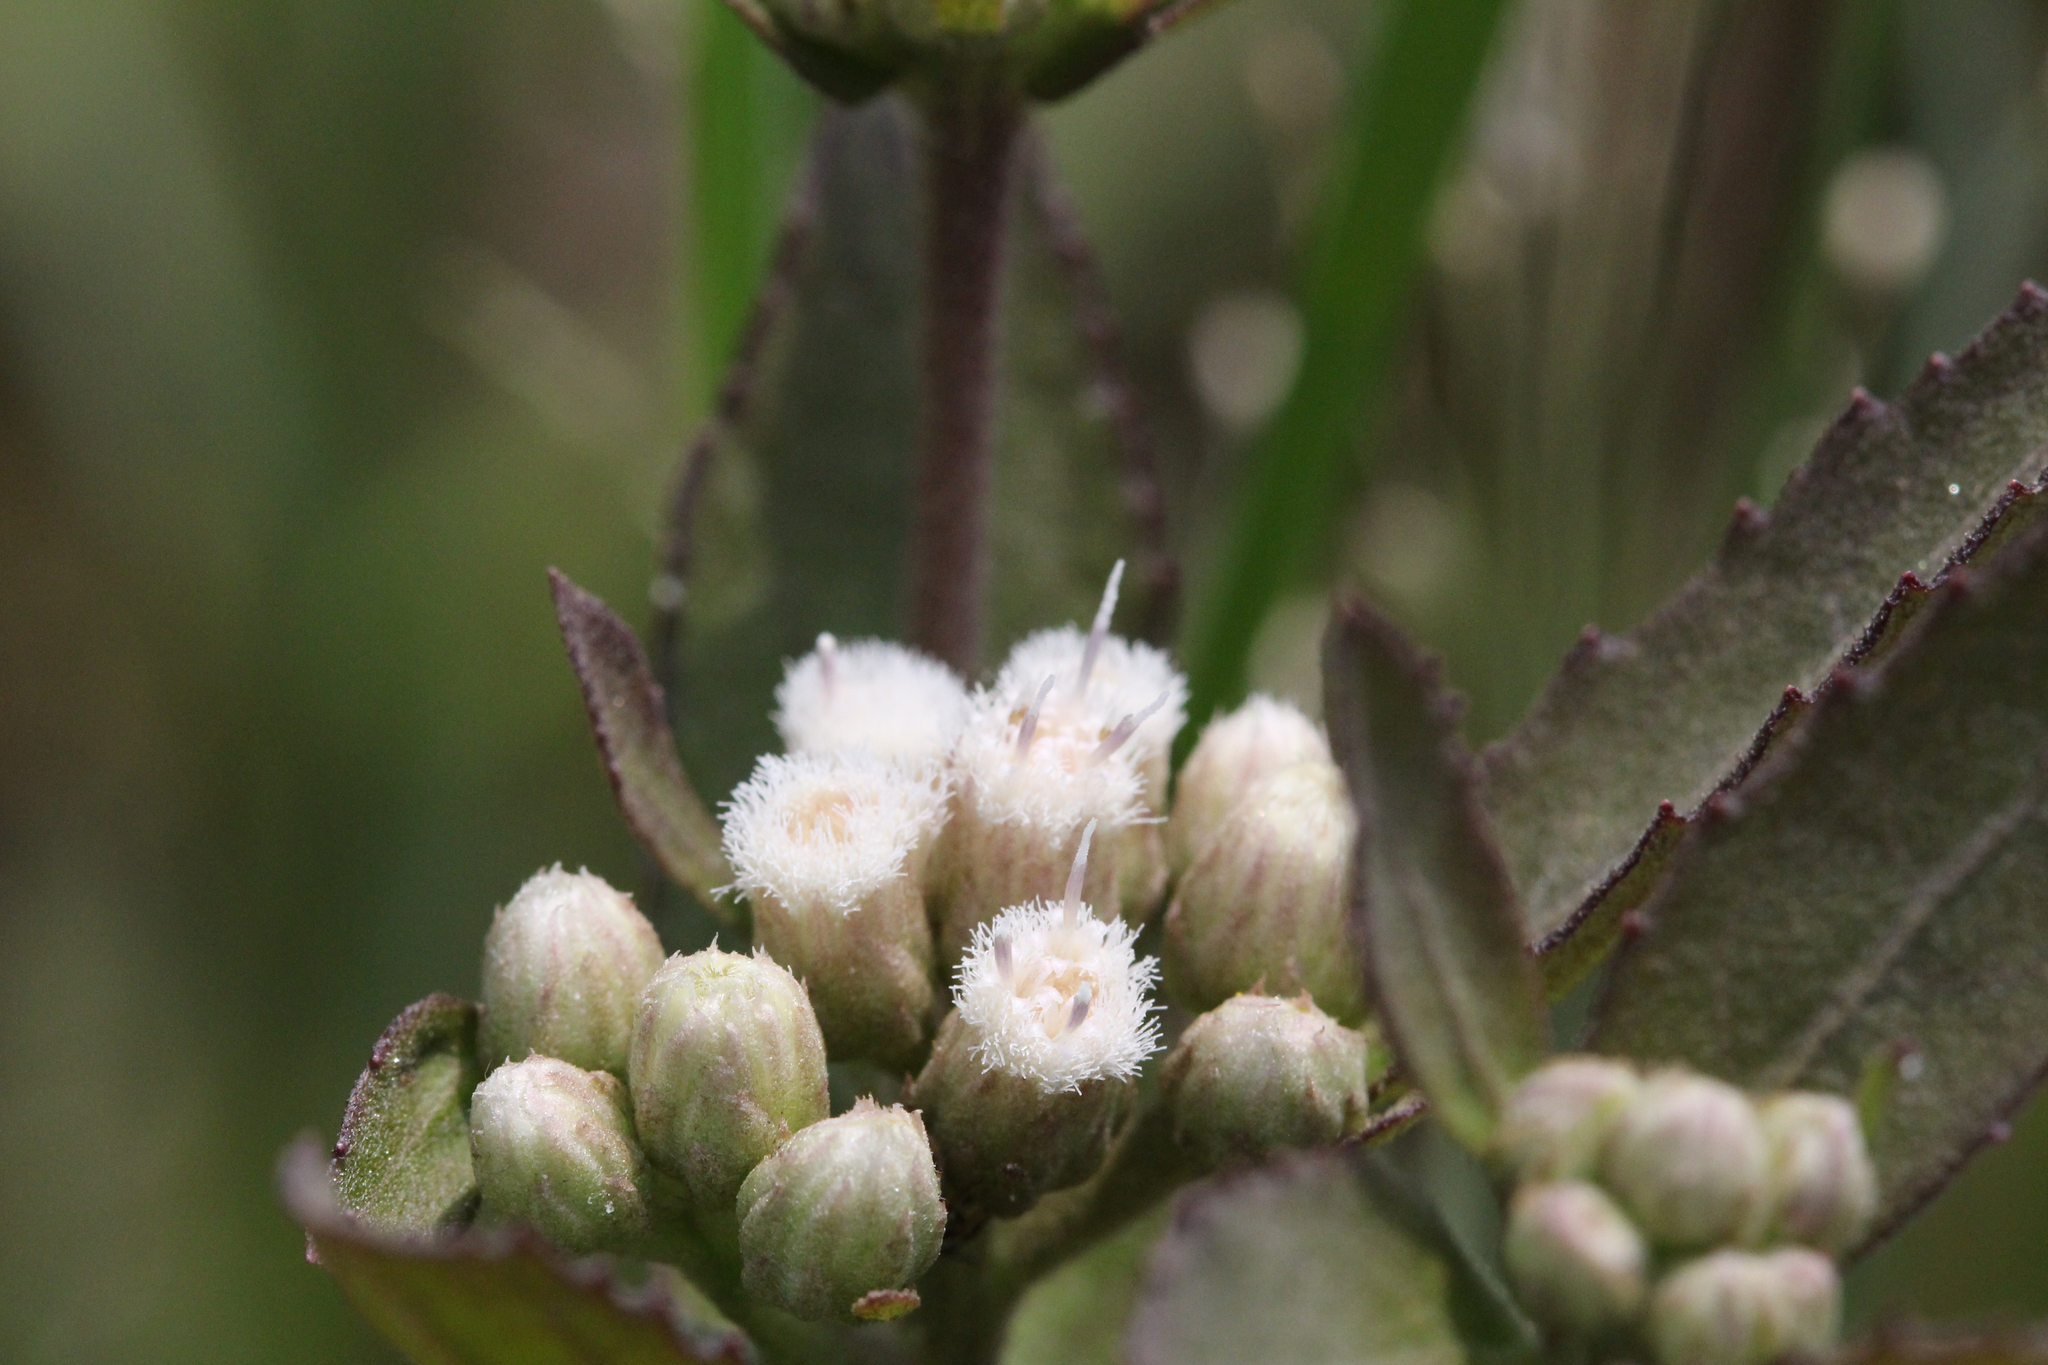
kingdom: Plantae
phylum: Tracheophyta
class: Magnoliopsida
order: Asterales
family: Asteraceae
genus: Pluchea
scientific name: Pluchea foetida
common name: Stinking camphorweed
